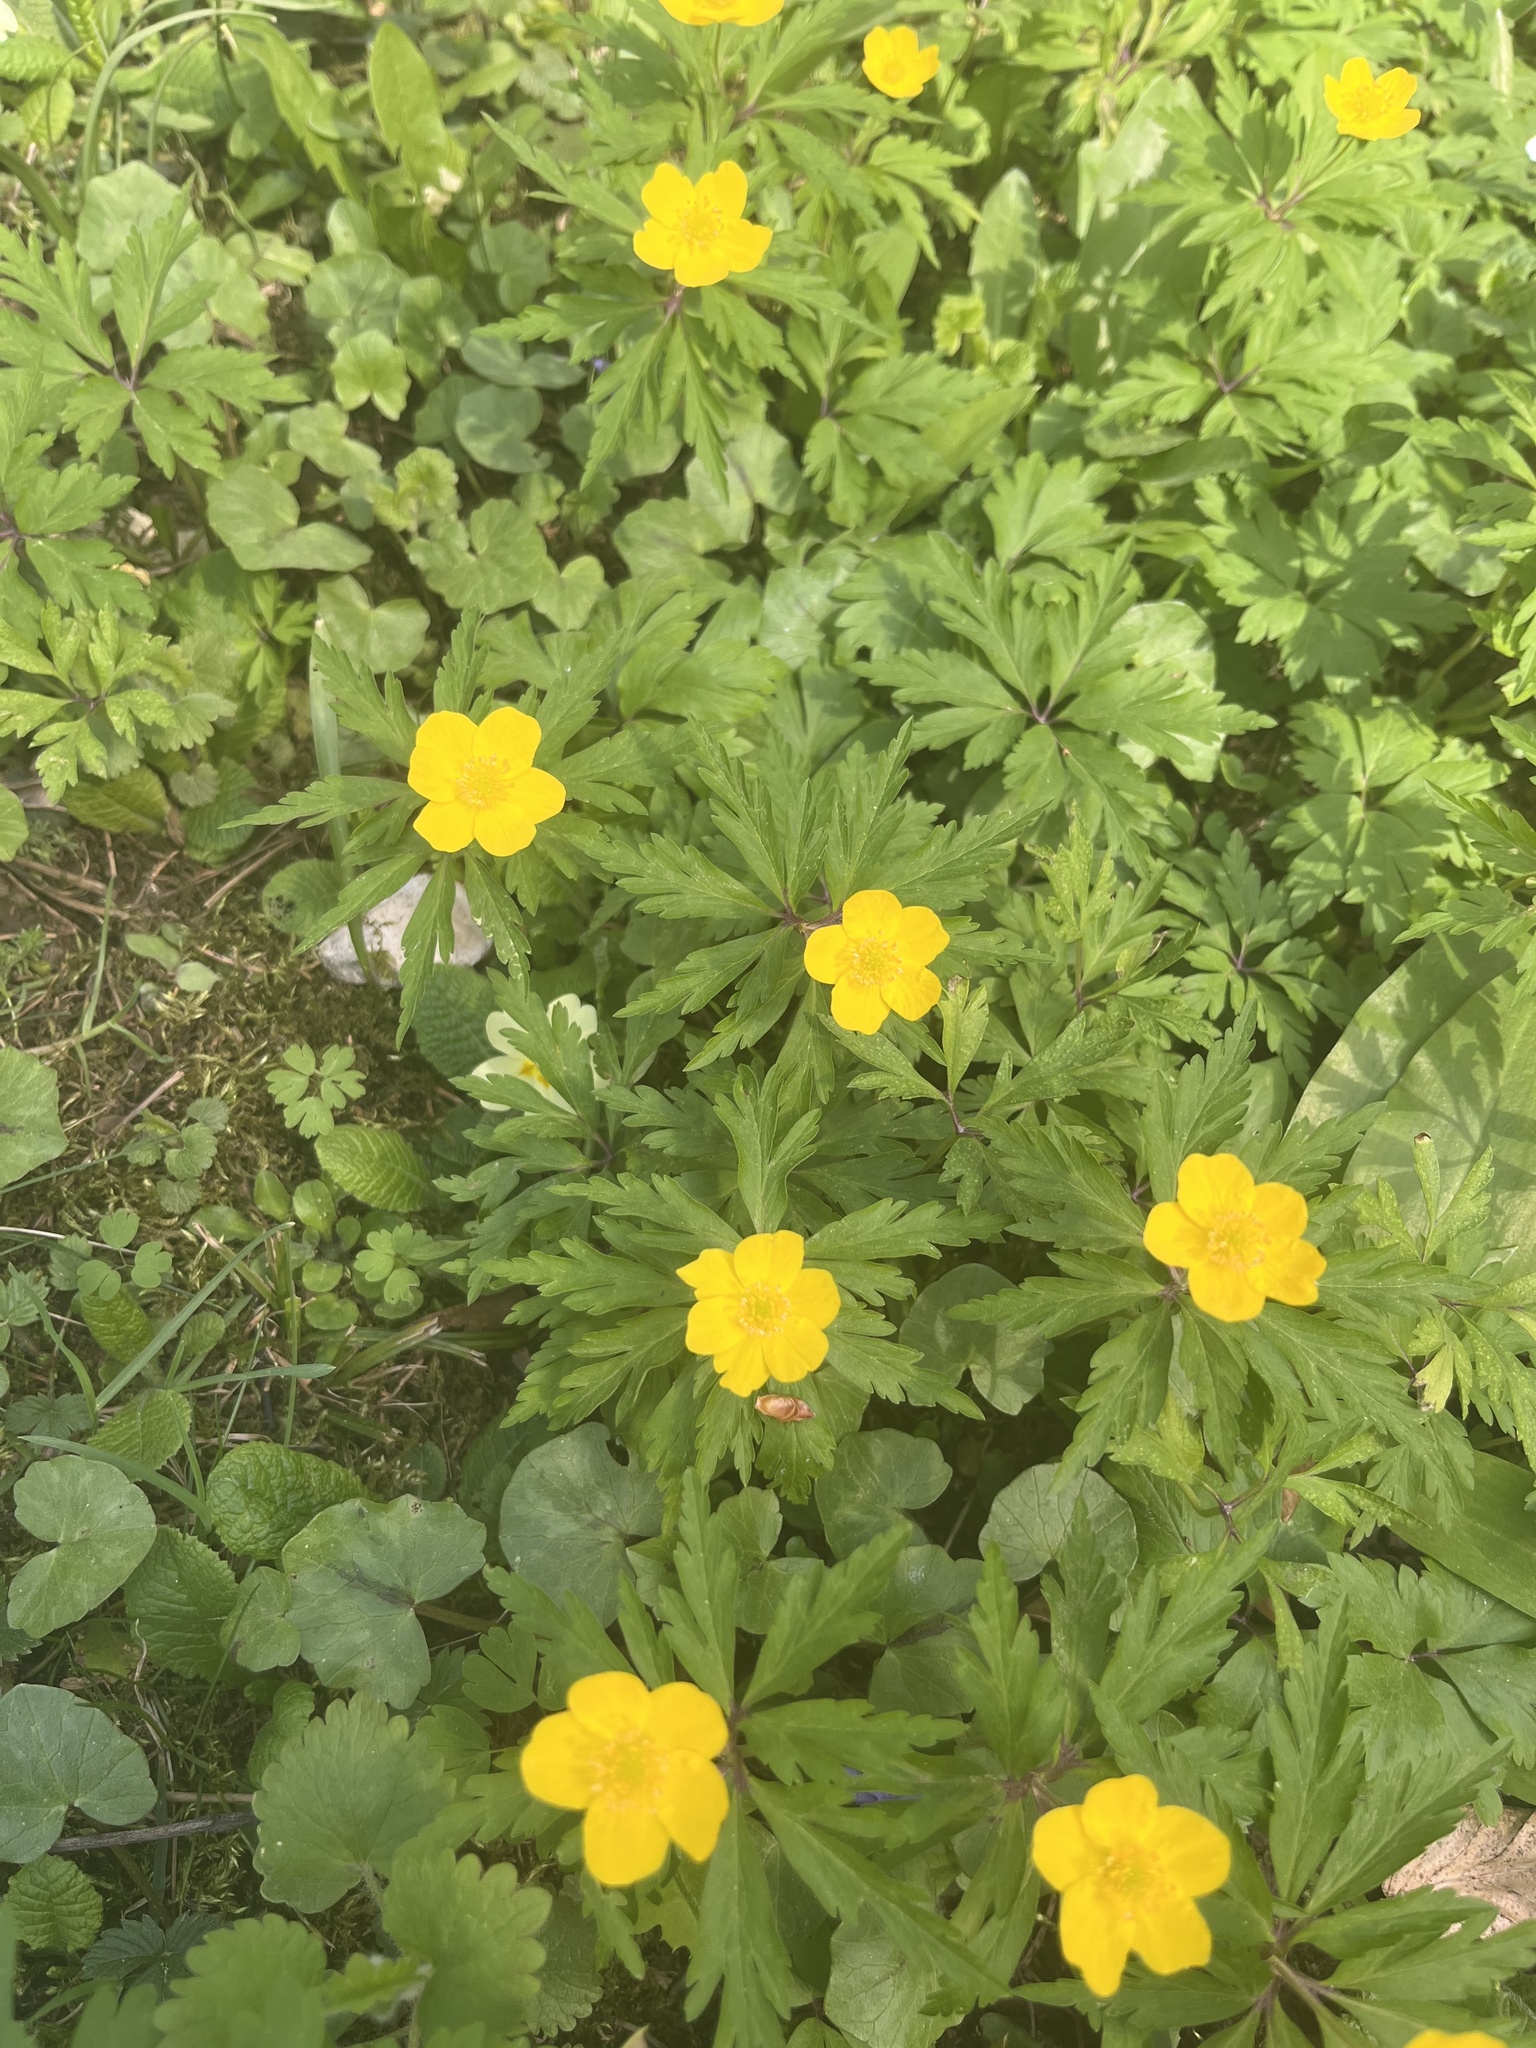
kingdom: Plantae
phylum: Tracheophyta
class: Magnoliopsida
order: Ranunculales
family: Ranunculaceae
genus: Anemone
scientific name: Anemone ranunculoides
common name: Yellow anemone
